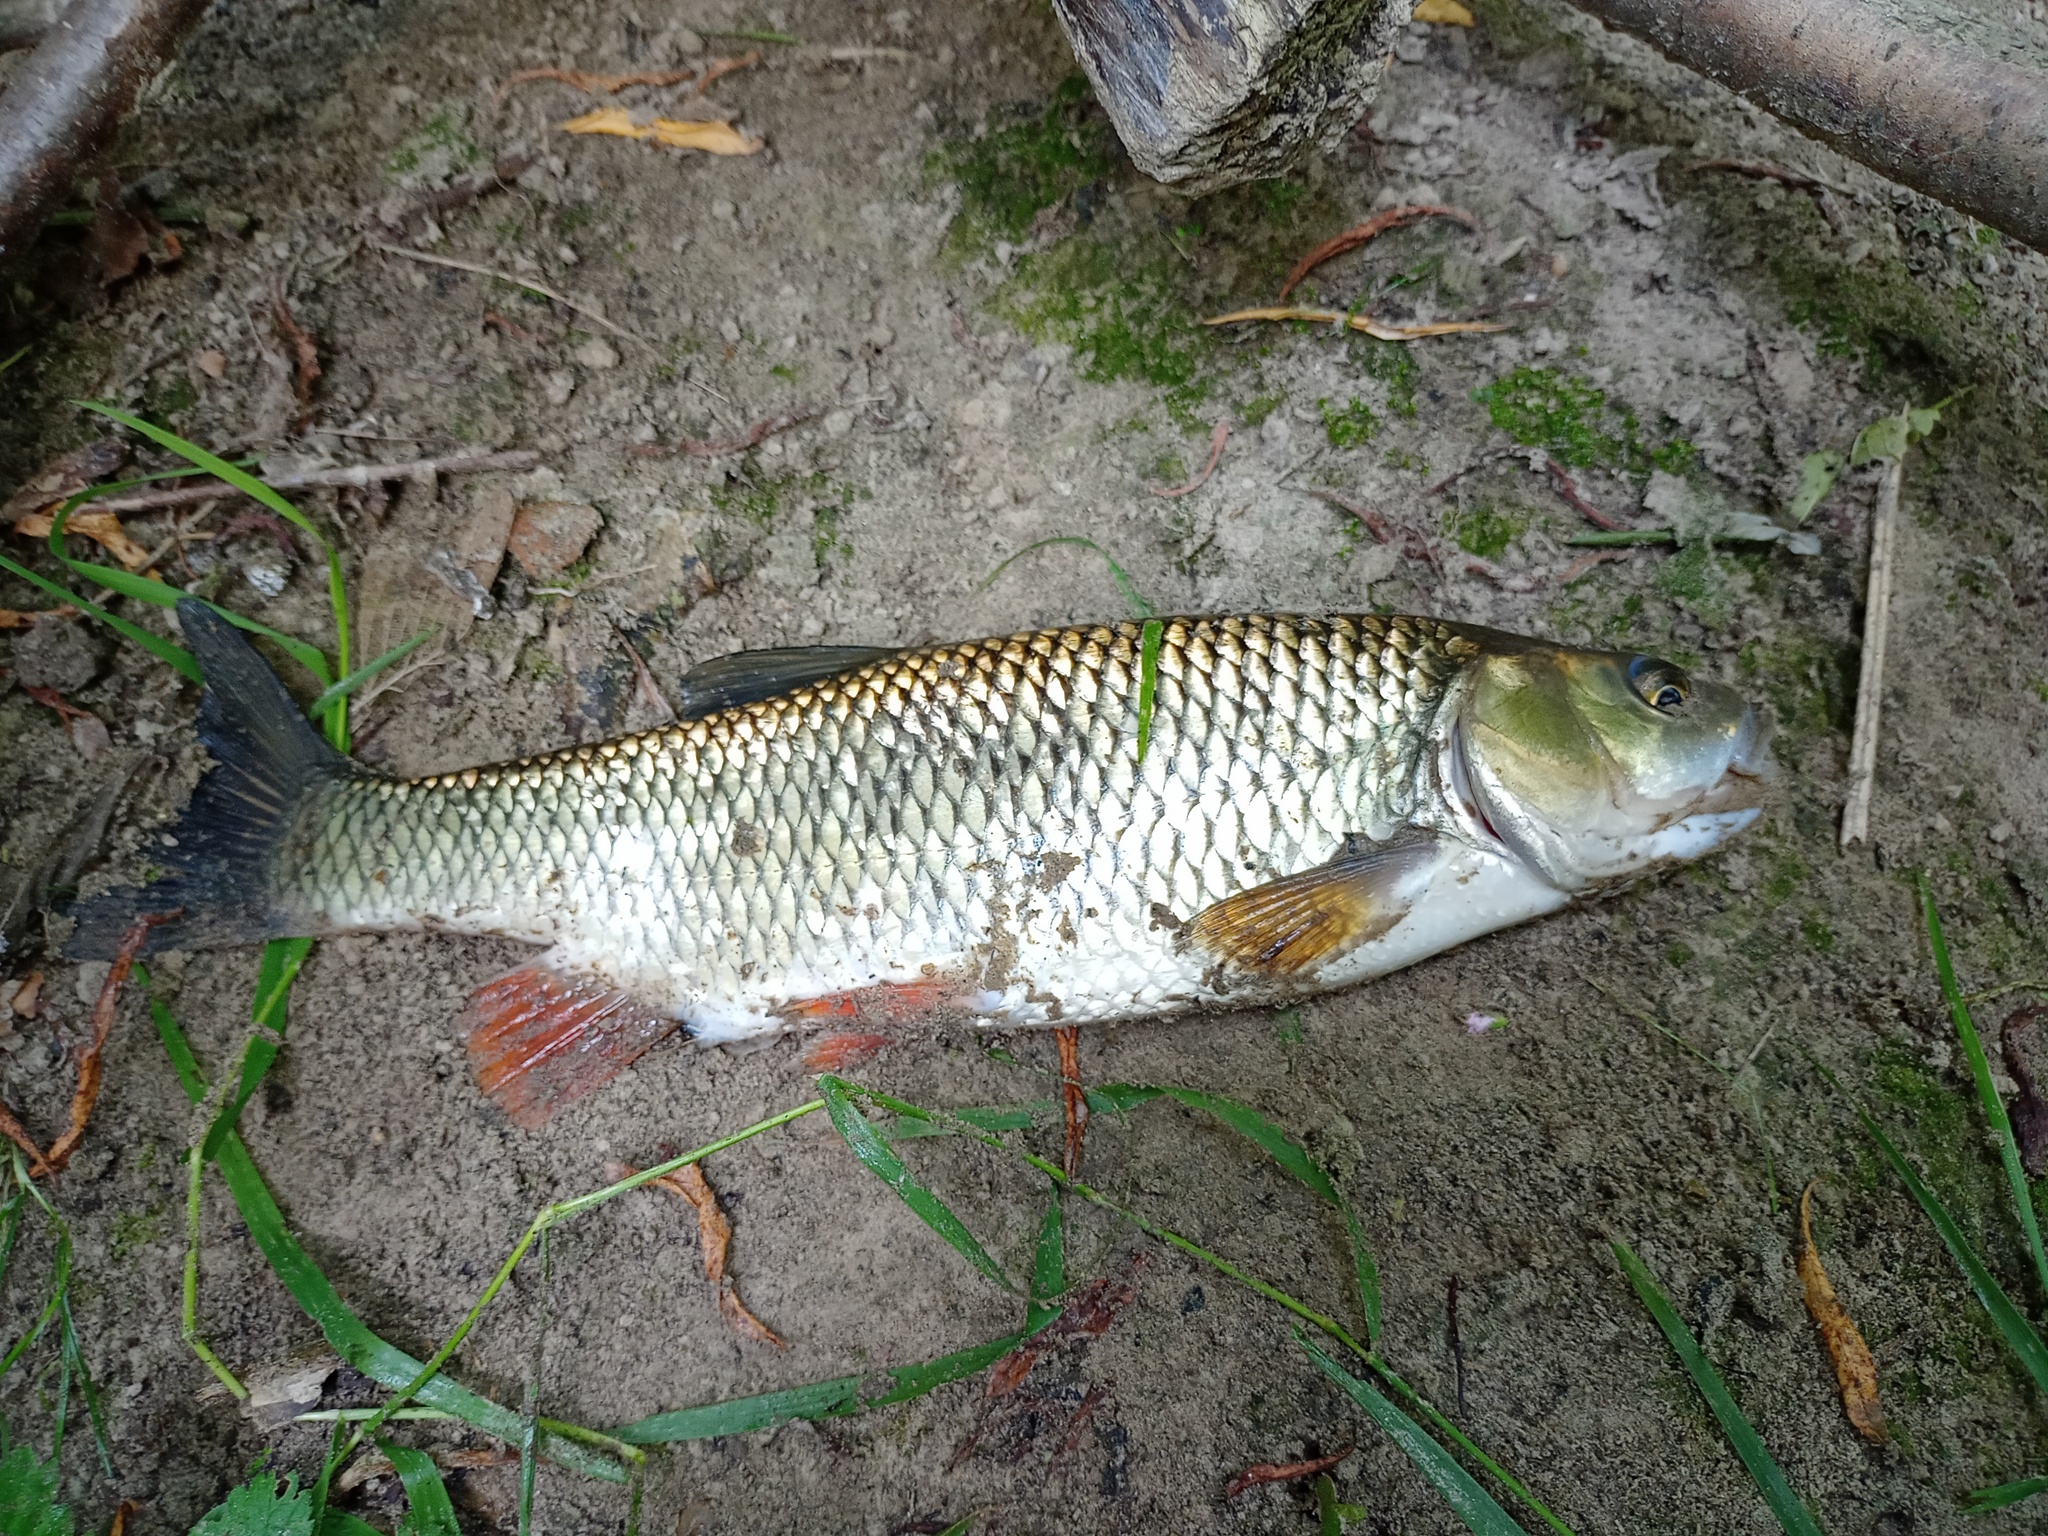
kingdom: Animalia
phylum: Chordata
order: Cypriniformes
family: Cyprinidae
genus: Squalius
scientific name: Squalius cephalus
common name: Chub
